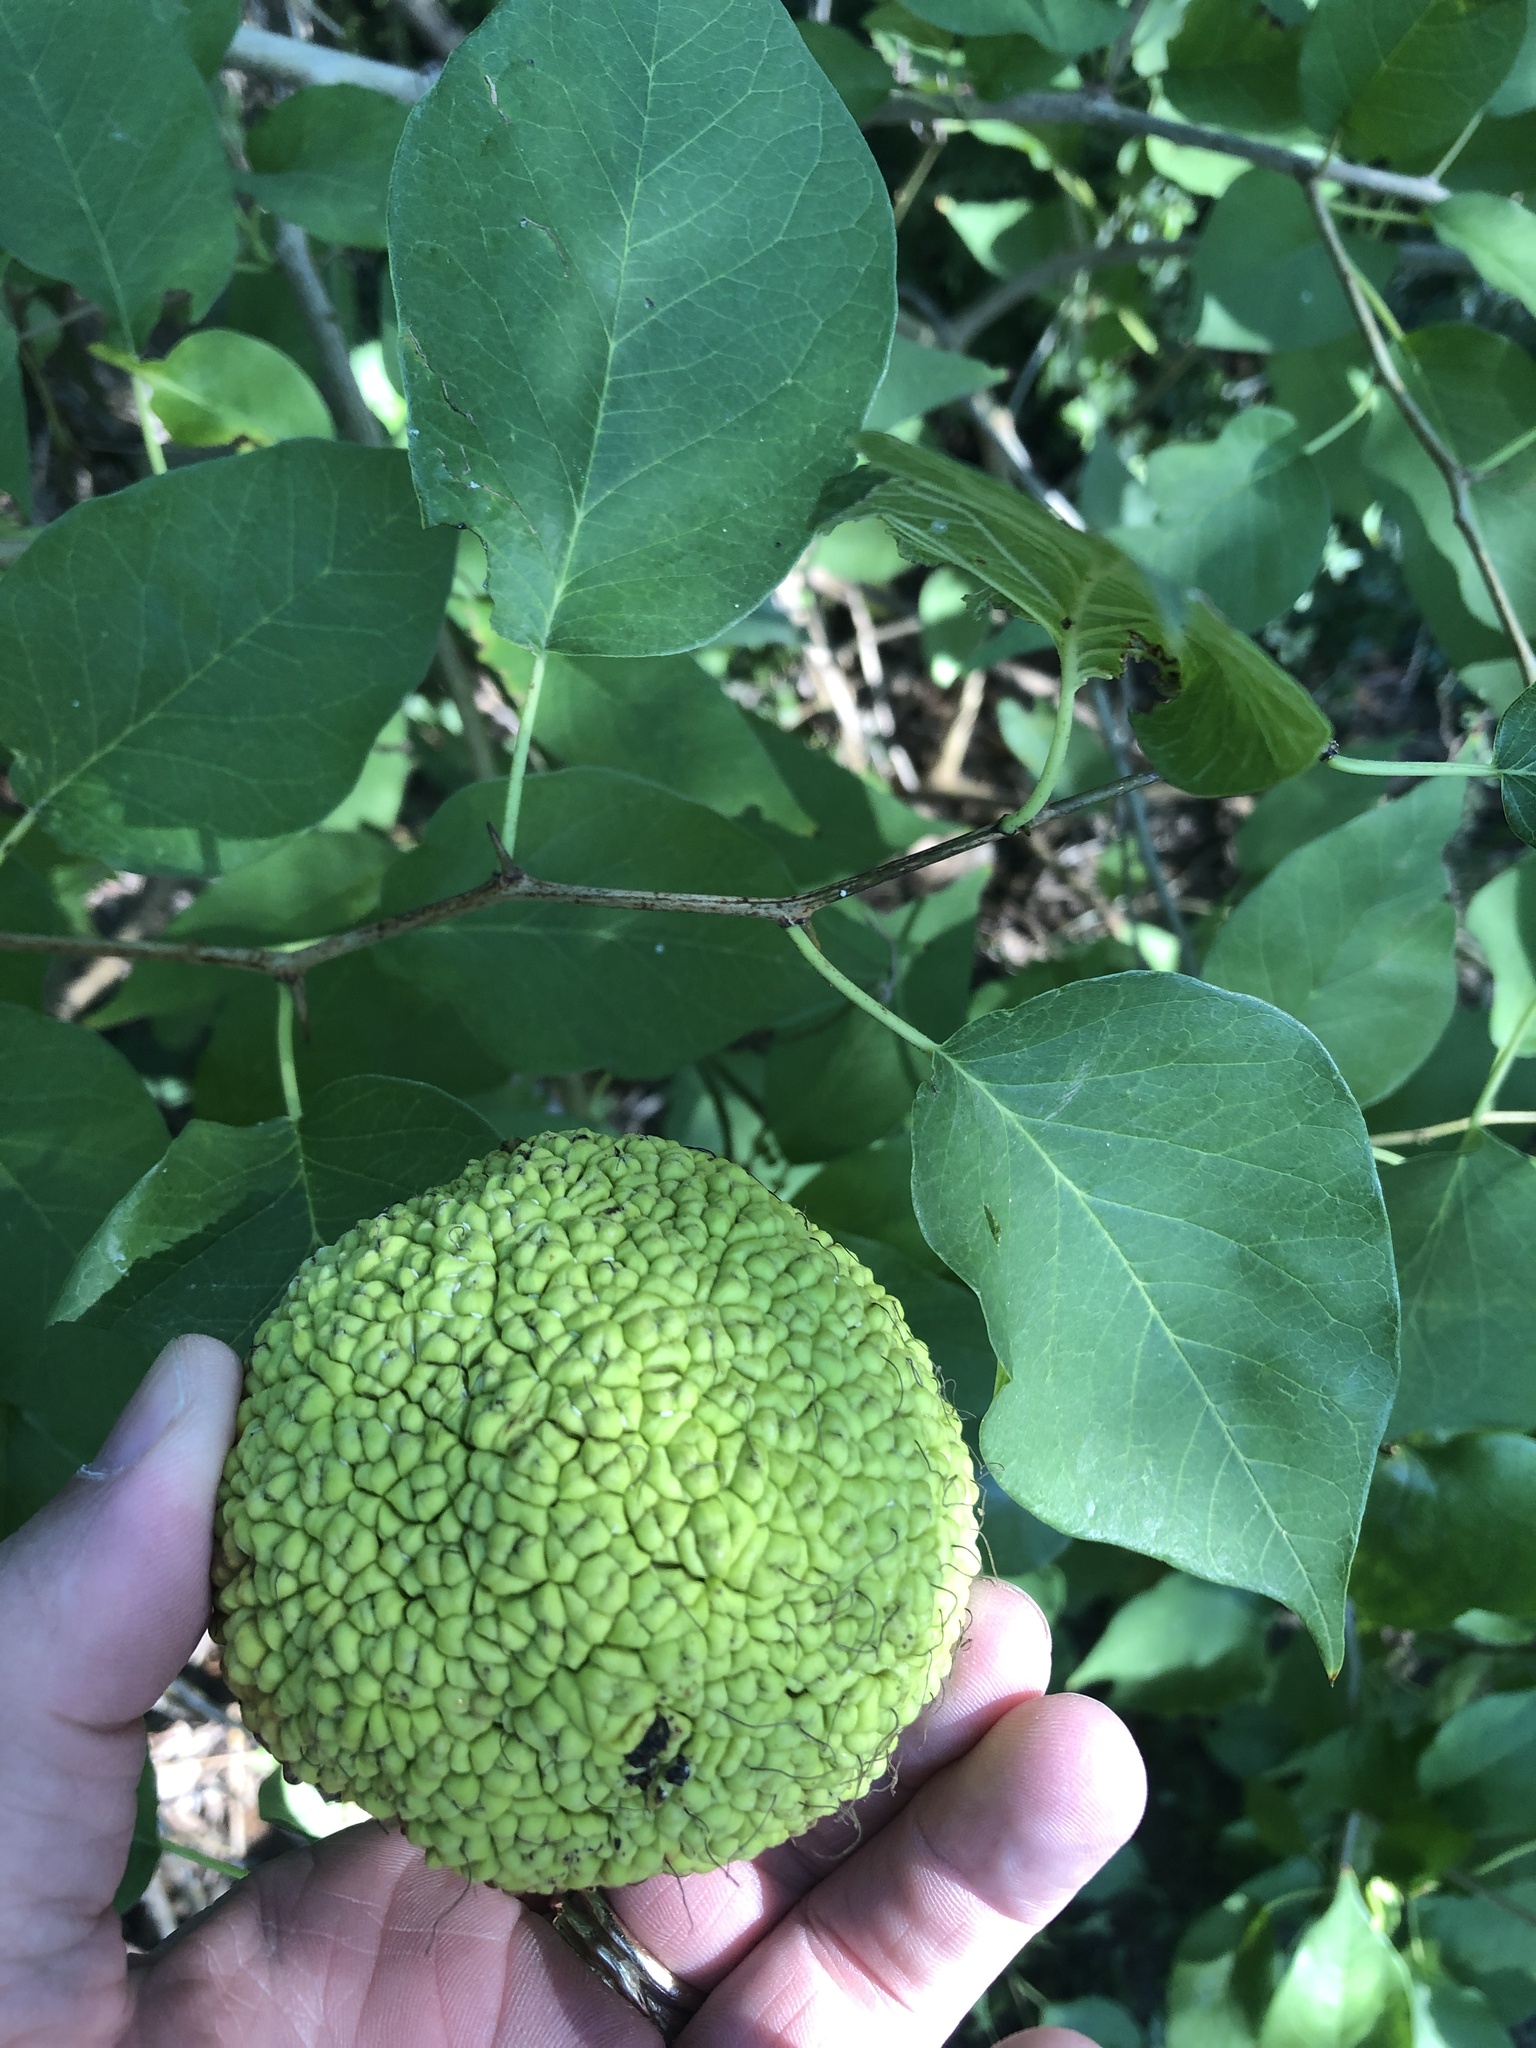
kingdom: Plantae
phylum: Tracheophyta
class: Magnoliopsida
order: Rosales
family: Moraceae
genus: Maclura
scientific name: Maclura pomifera
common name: Osage-orange
